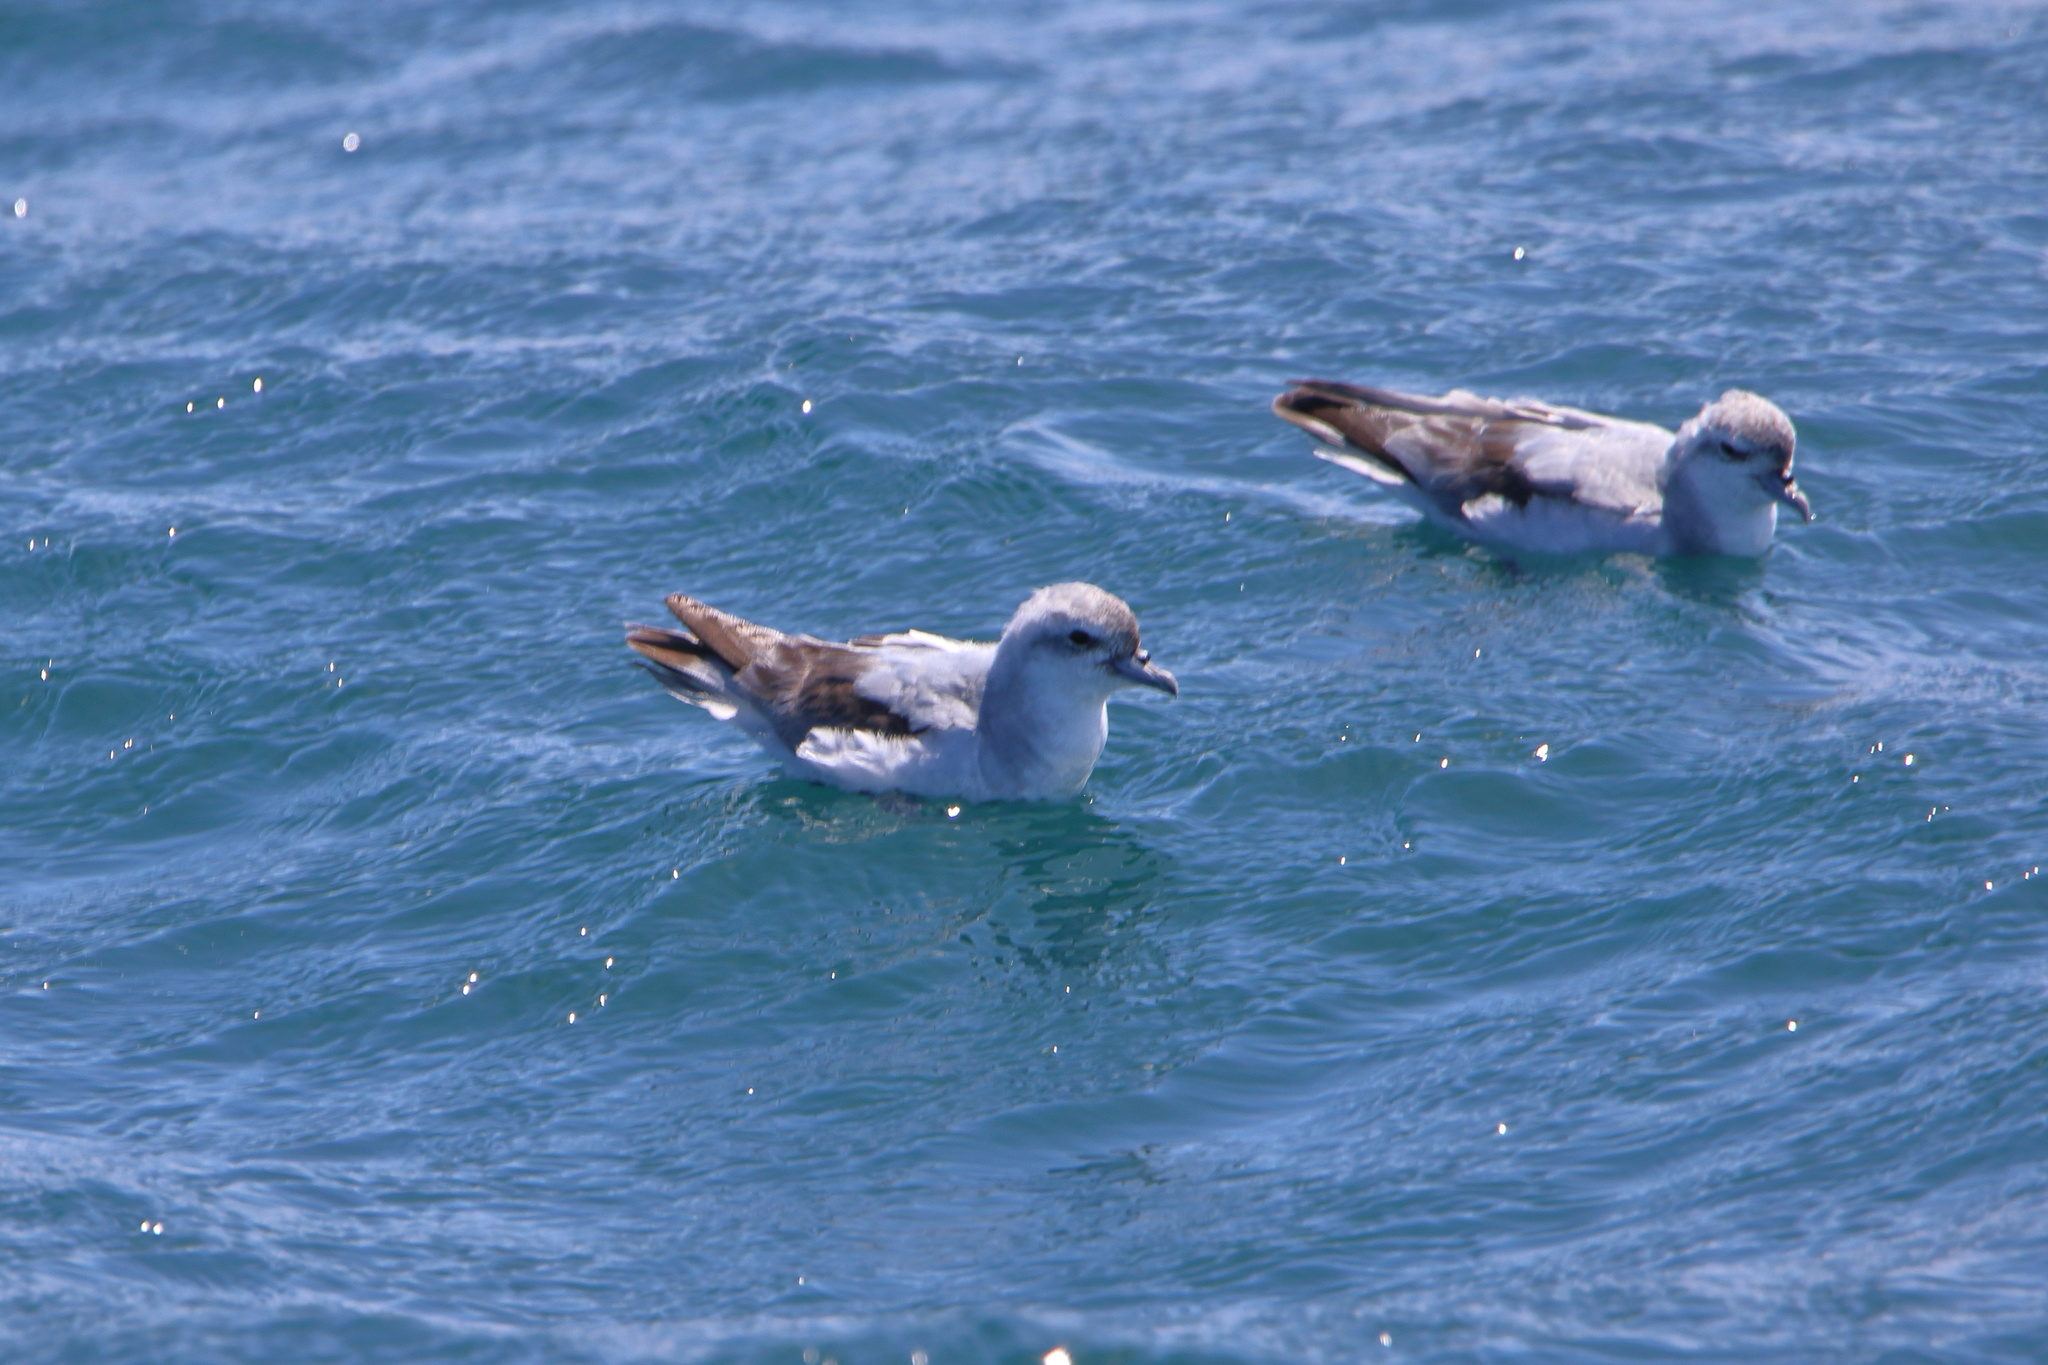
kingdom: Animalia
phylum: Chordata
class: Aves
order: Procellariiformes
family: Procellariidae
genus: Pachyptila
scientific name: Pachyptila turtur
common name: Fairy prion
